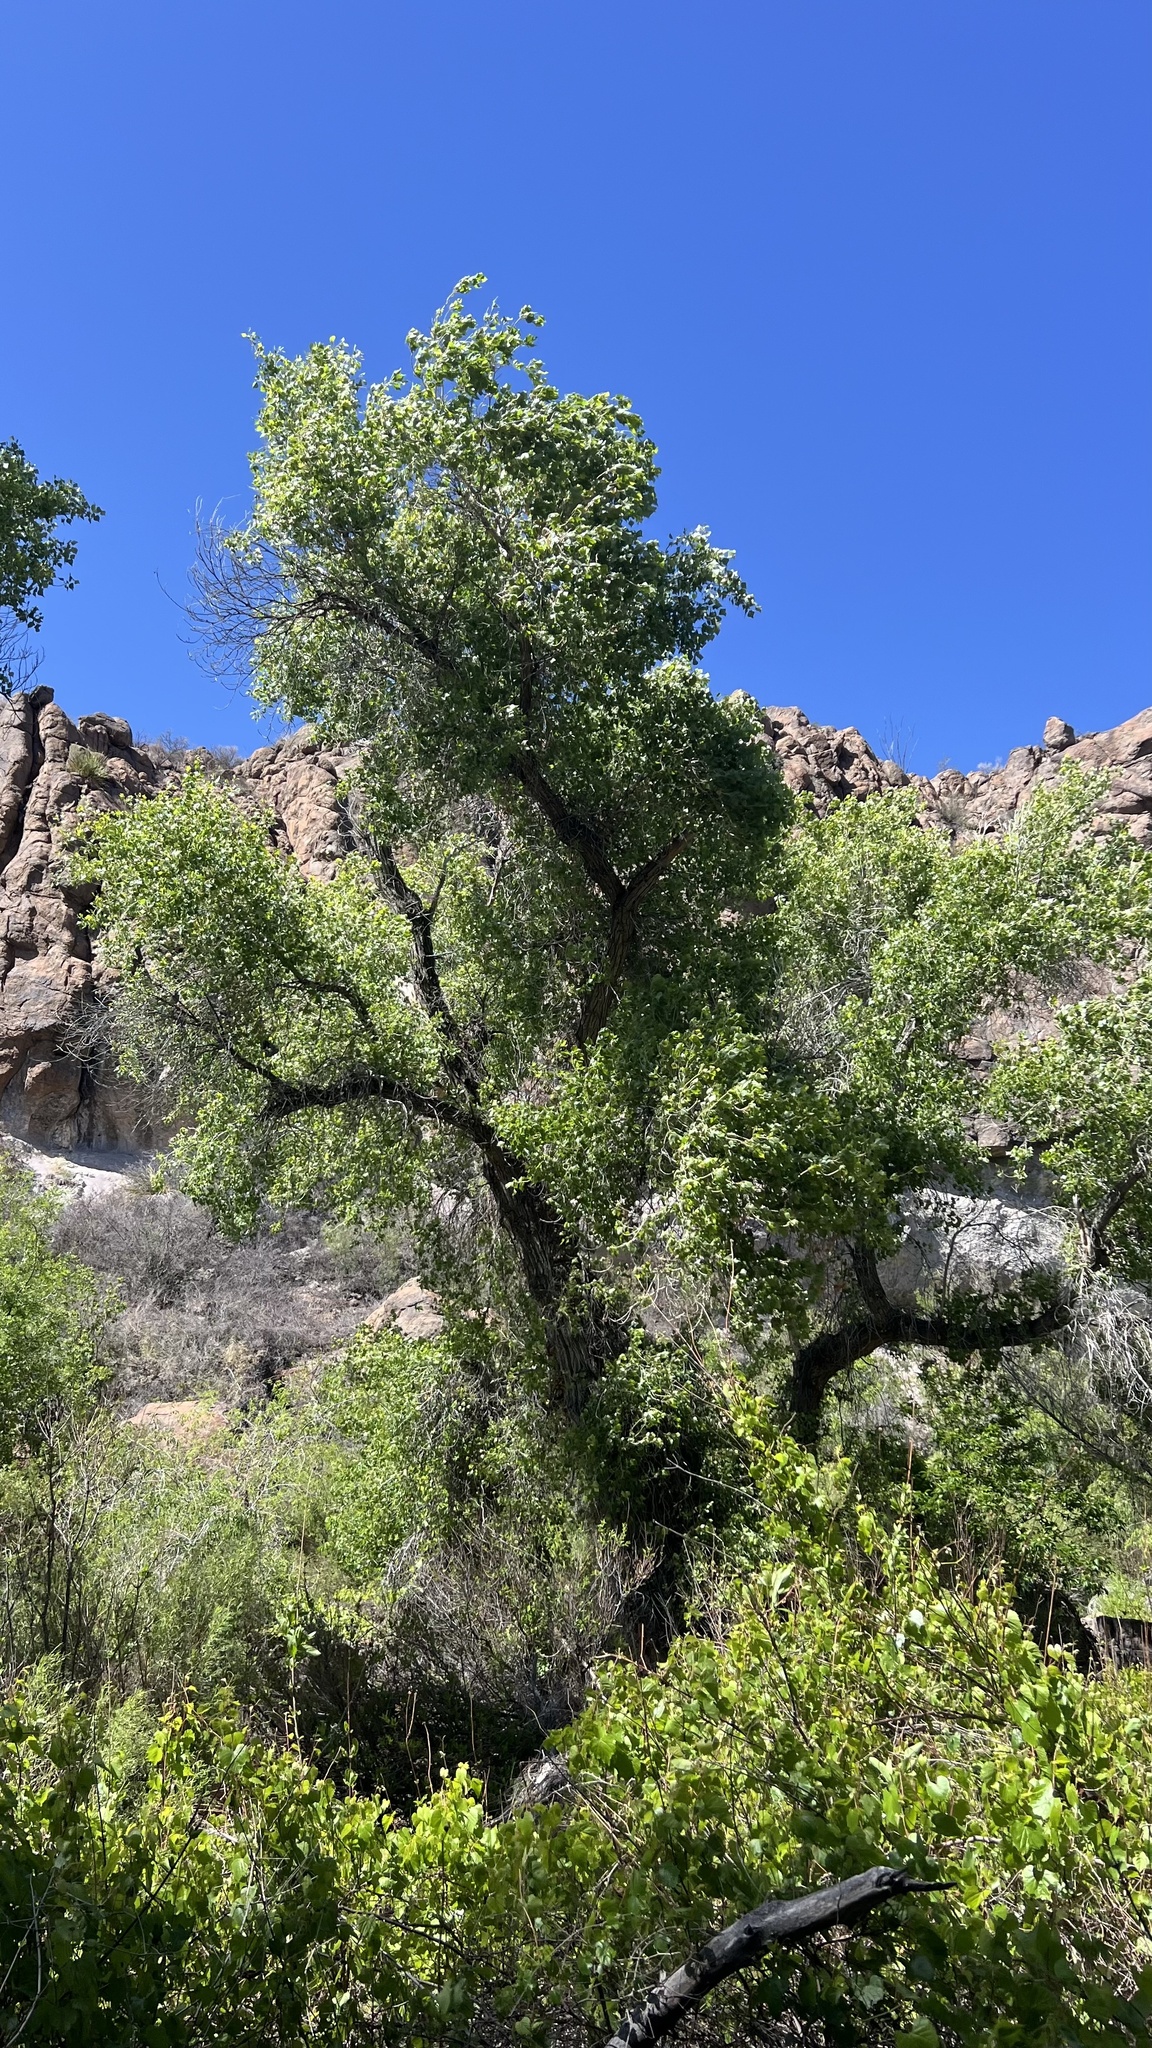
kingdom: Plantae
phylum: Tracheophyta
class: Magnoliopsida
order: Malpighiales
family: Salicaceae
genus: Populus
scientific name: Populus fremontii
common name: Fremont's cottonwood
